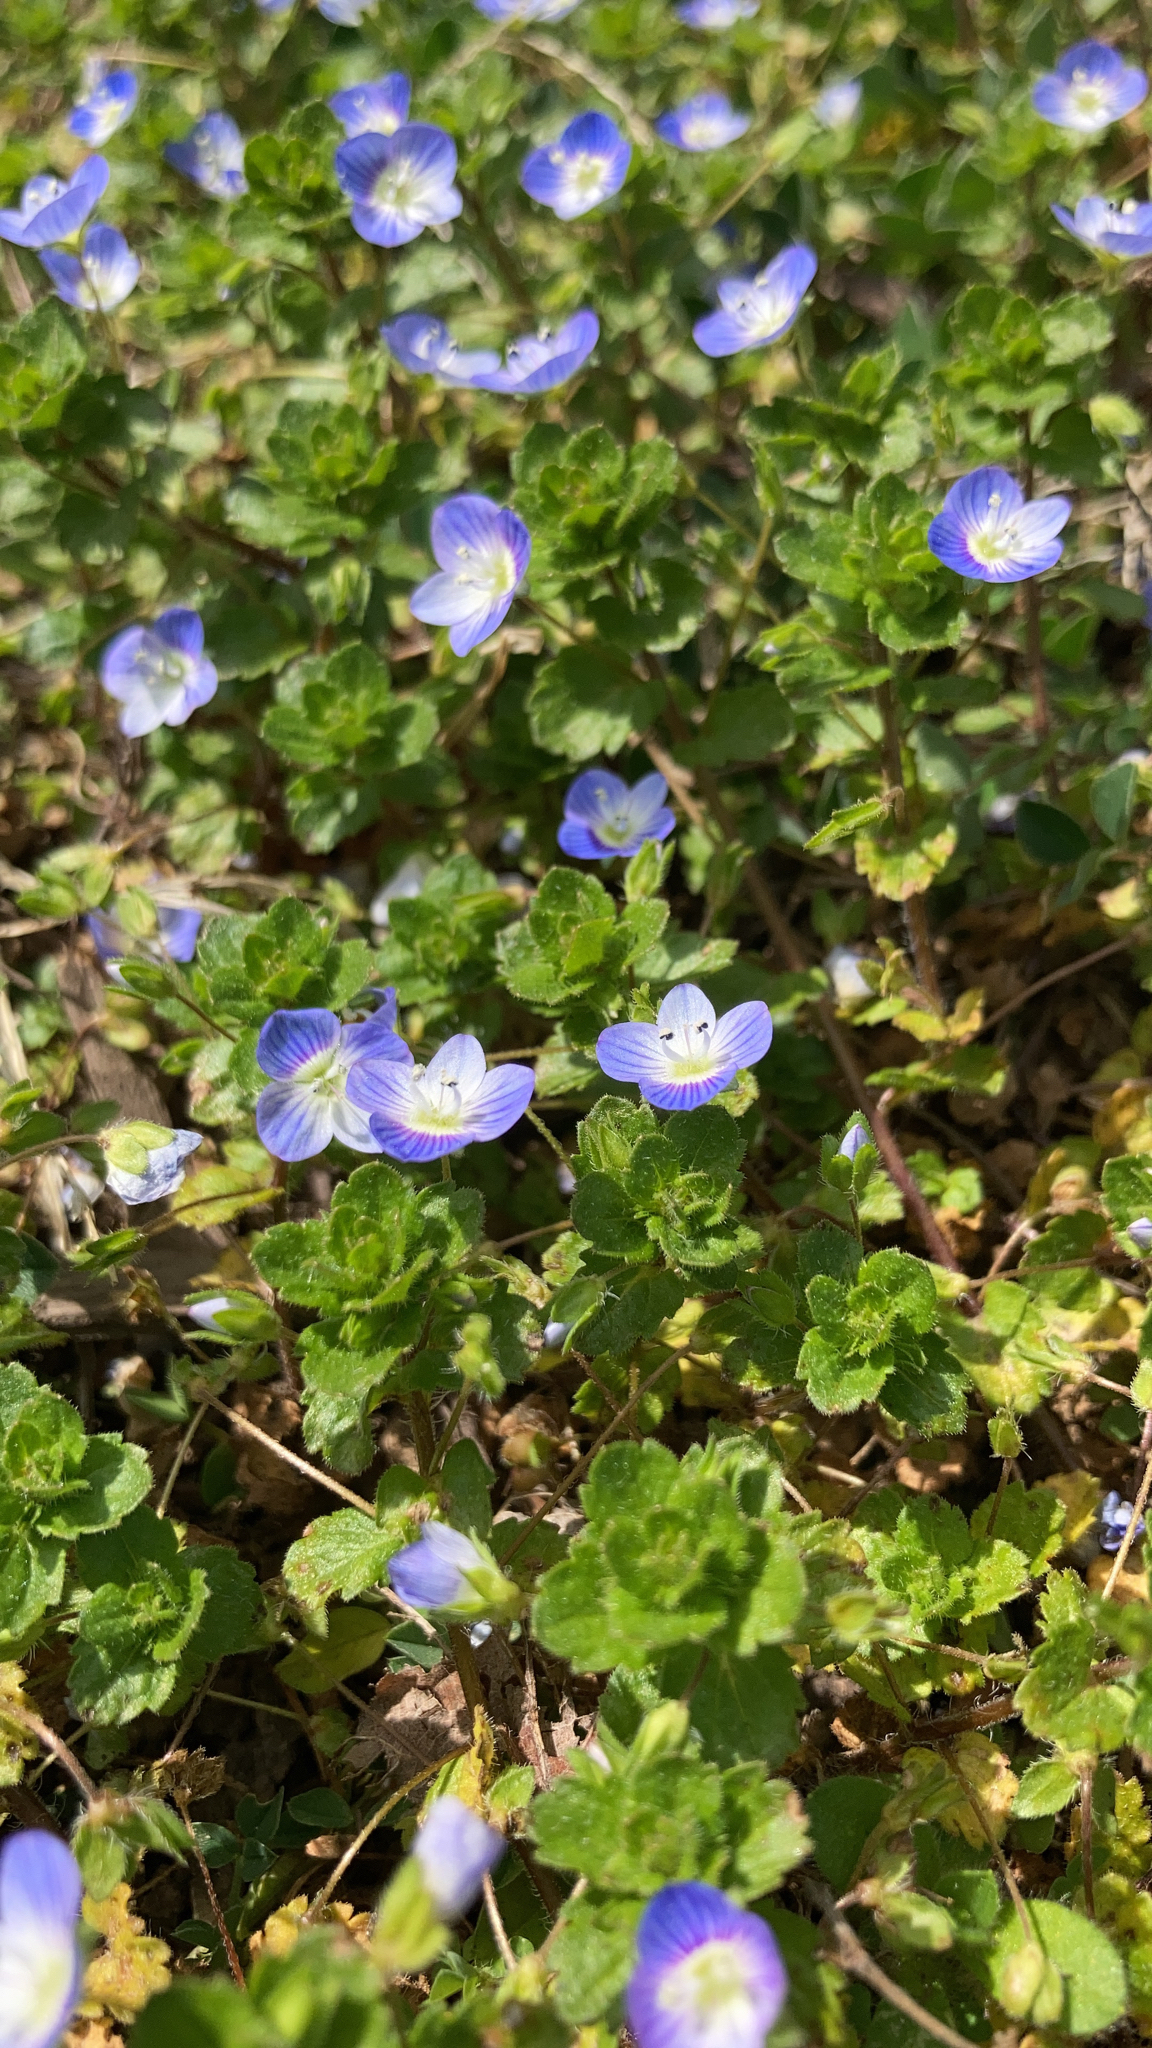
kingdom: Plantae
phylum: Tracheophyta
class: Magnoliopsida
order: Lamiales
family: Plantaginaceae
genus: Veronica
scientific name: Veronica persica
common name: Common field-speedwell
